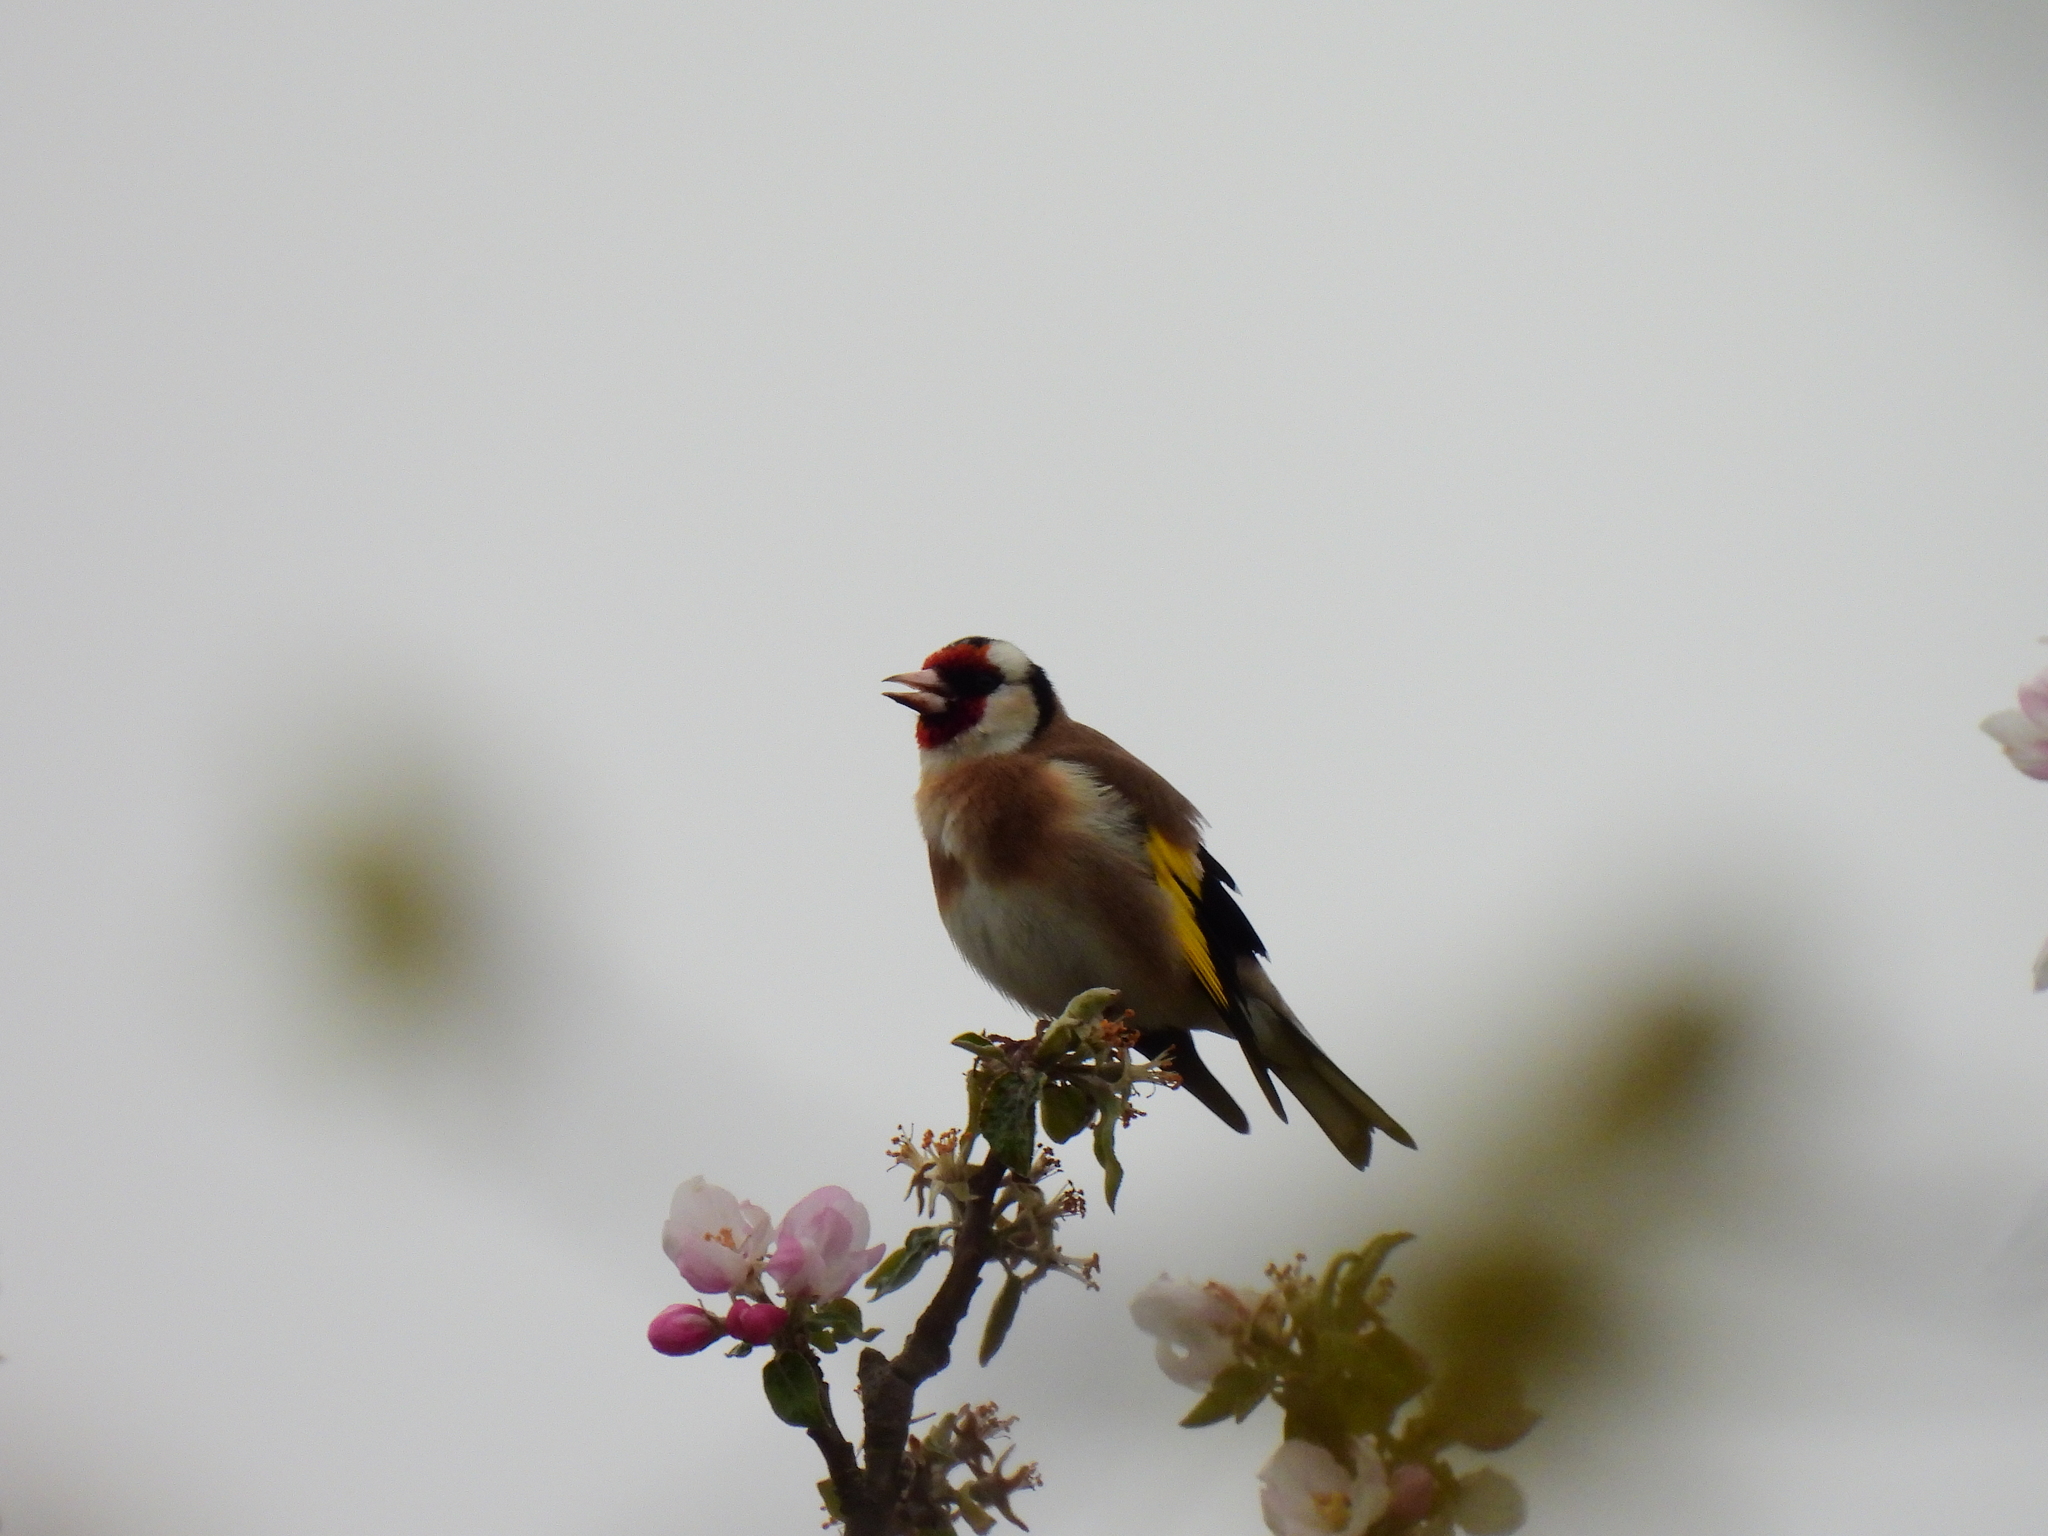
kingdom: Animalia
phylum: Chordata
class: Aves
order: Passeriformes
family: Fringillidae
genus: Carduelis
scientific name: Carduelis carduelis
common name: European goldfinch
